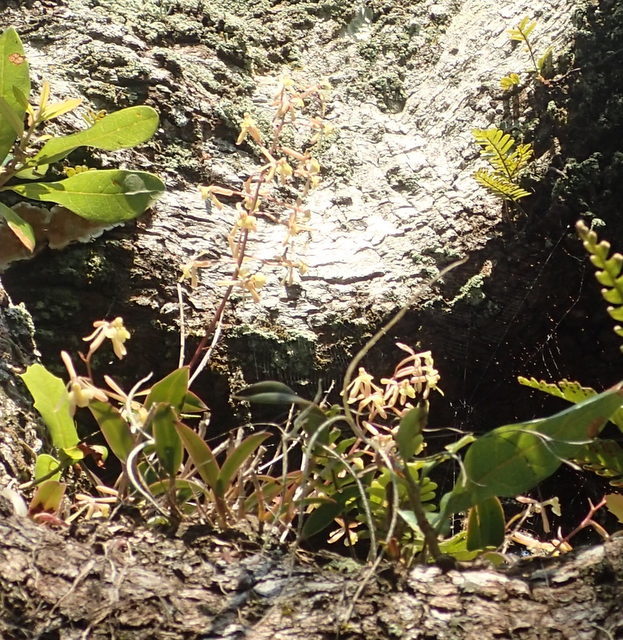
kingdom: Plantae
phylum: Tracheophyta
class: Liliopsida
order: Asparagales
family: Orchidaceae
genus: Epidendrum
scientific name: Epidendrum conopseum
